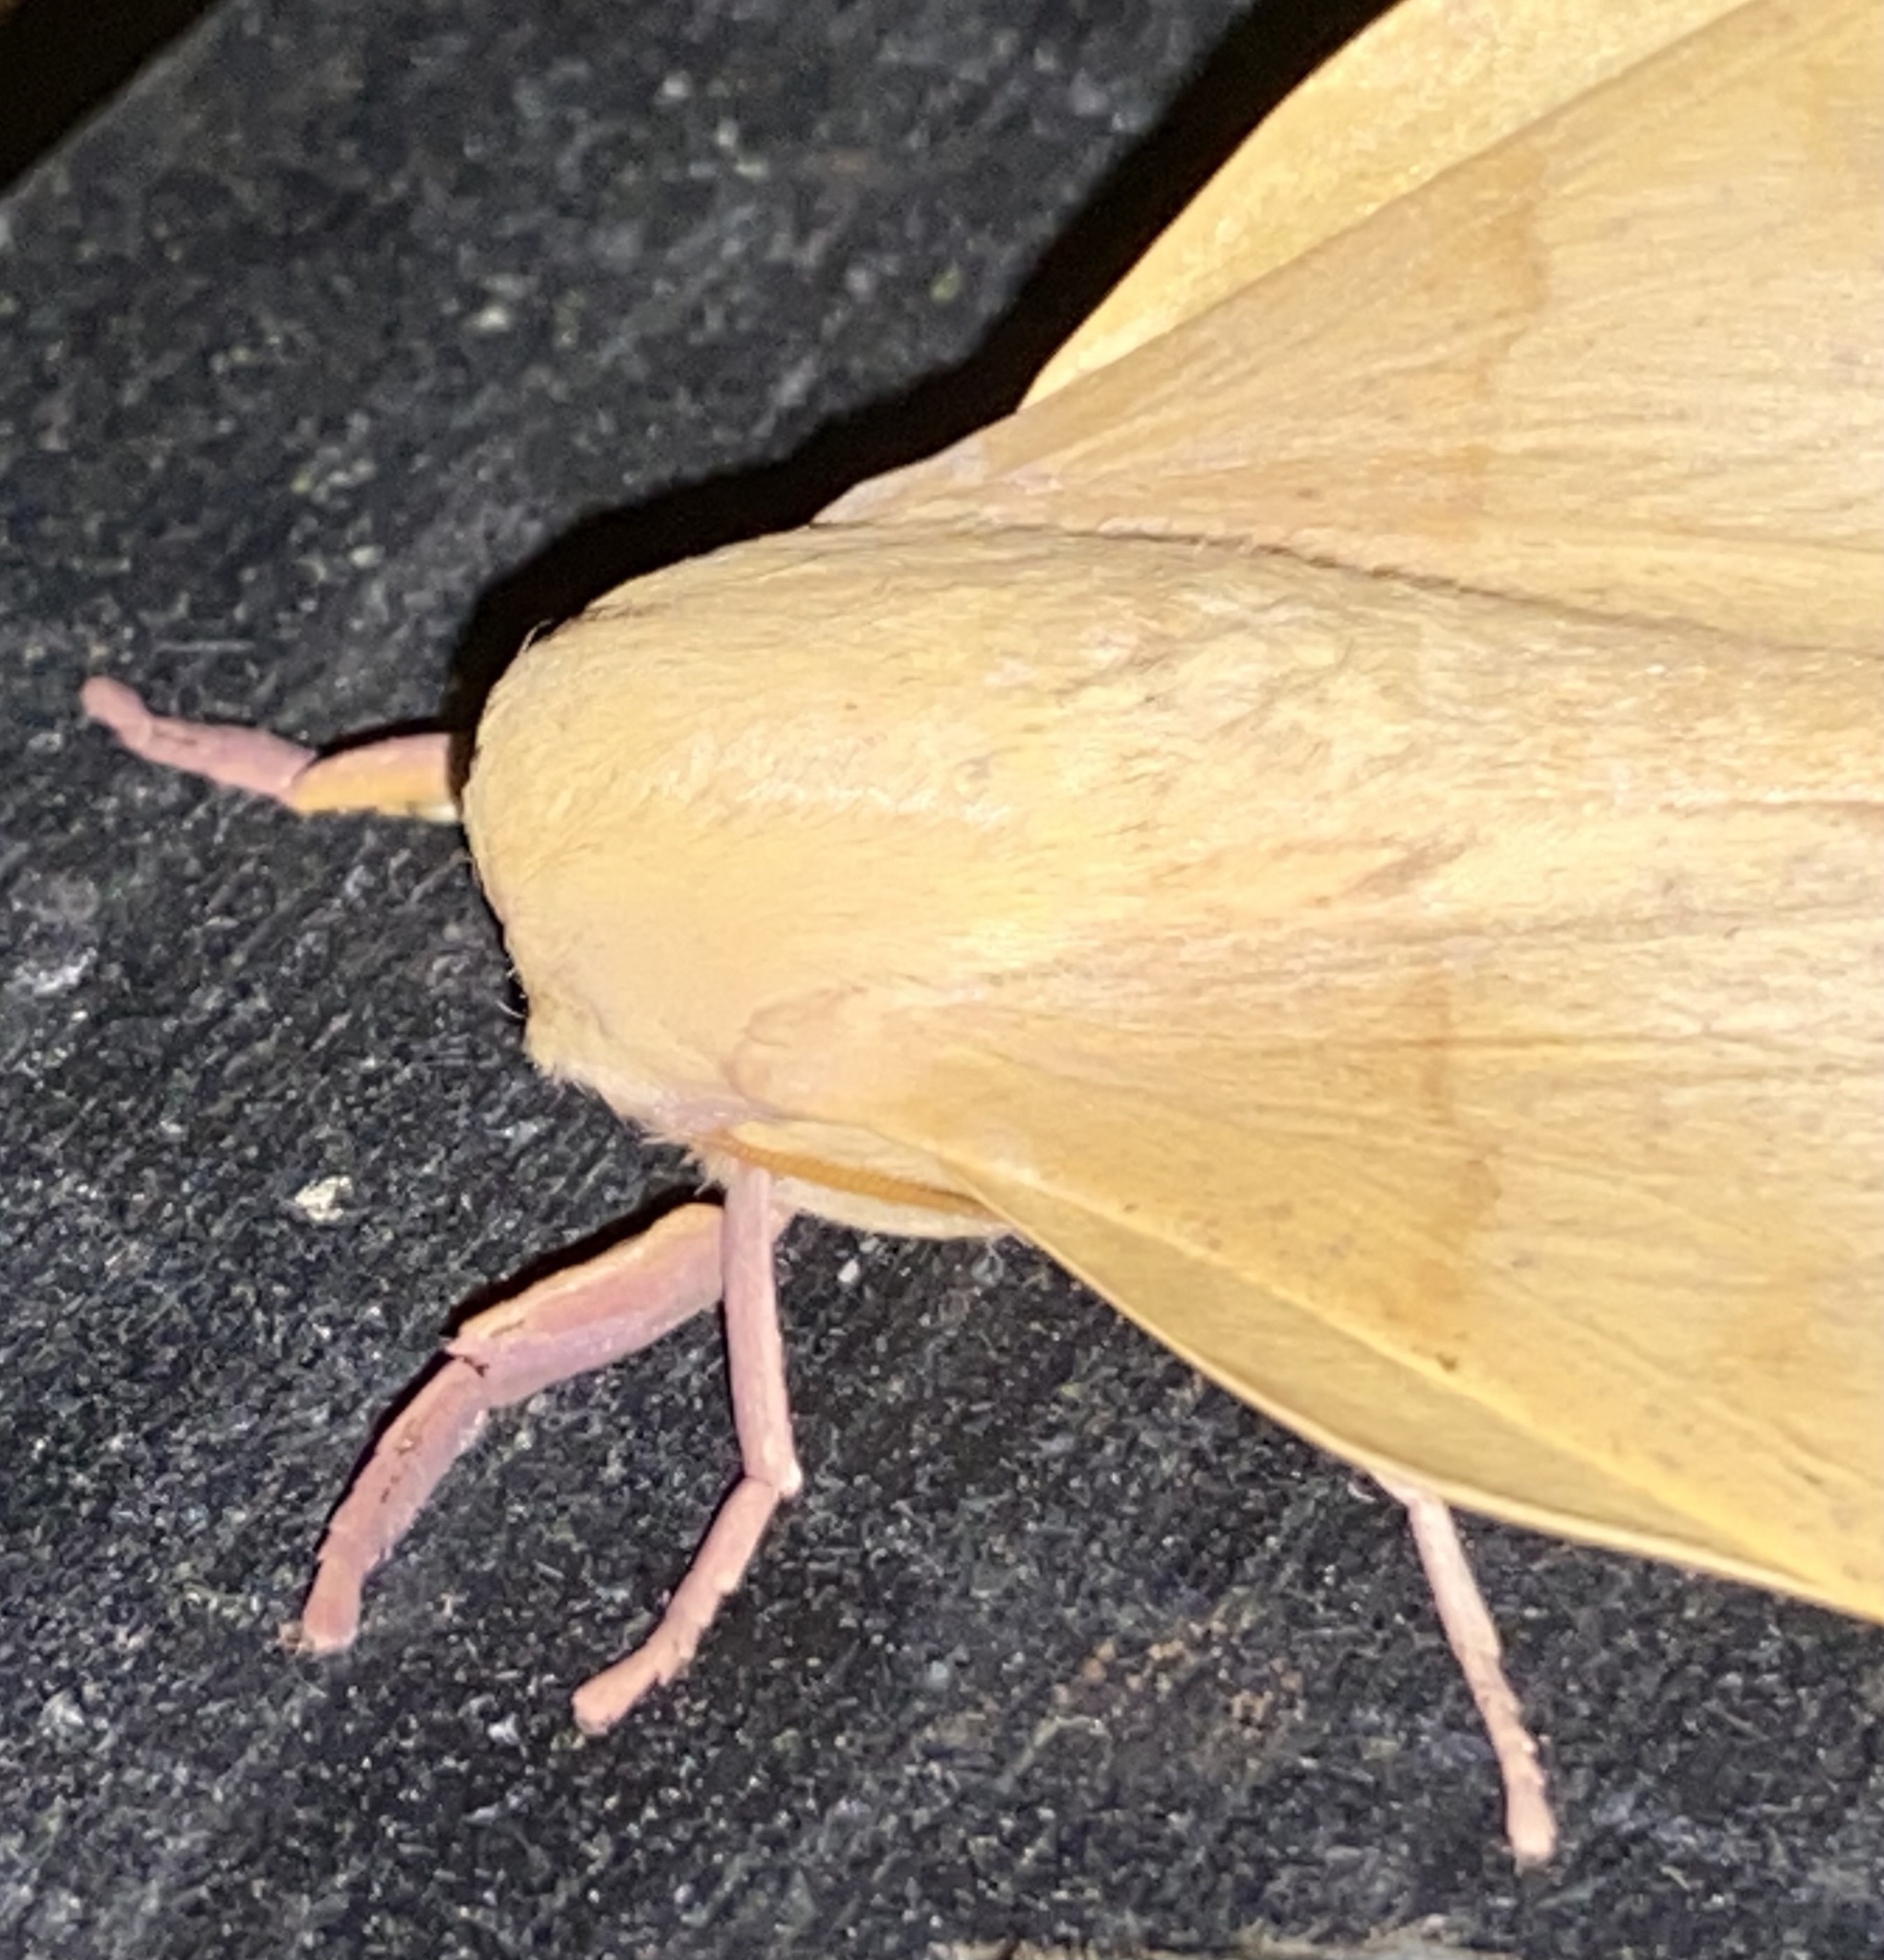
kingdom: Animalia
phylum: Arthropoda
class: Insecta
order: Lepidoptera
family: Saturniidae
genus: Syssphinx
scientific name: Syssphinx molina
